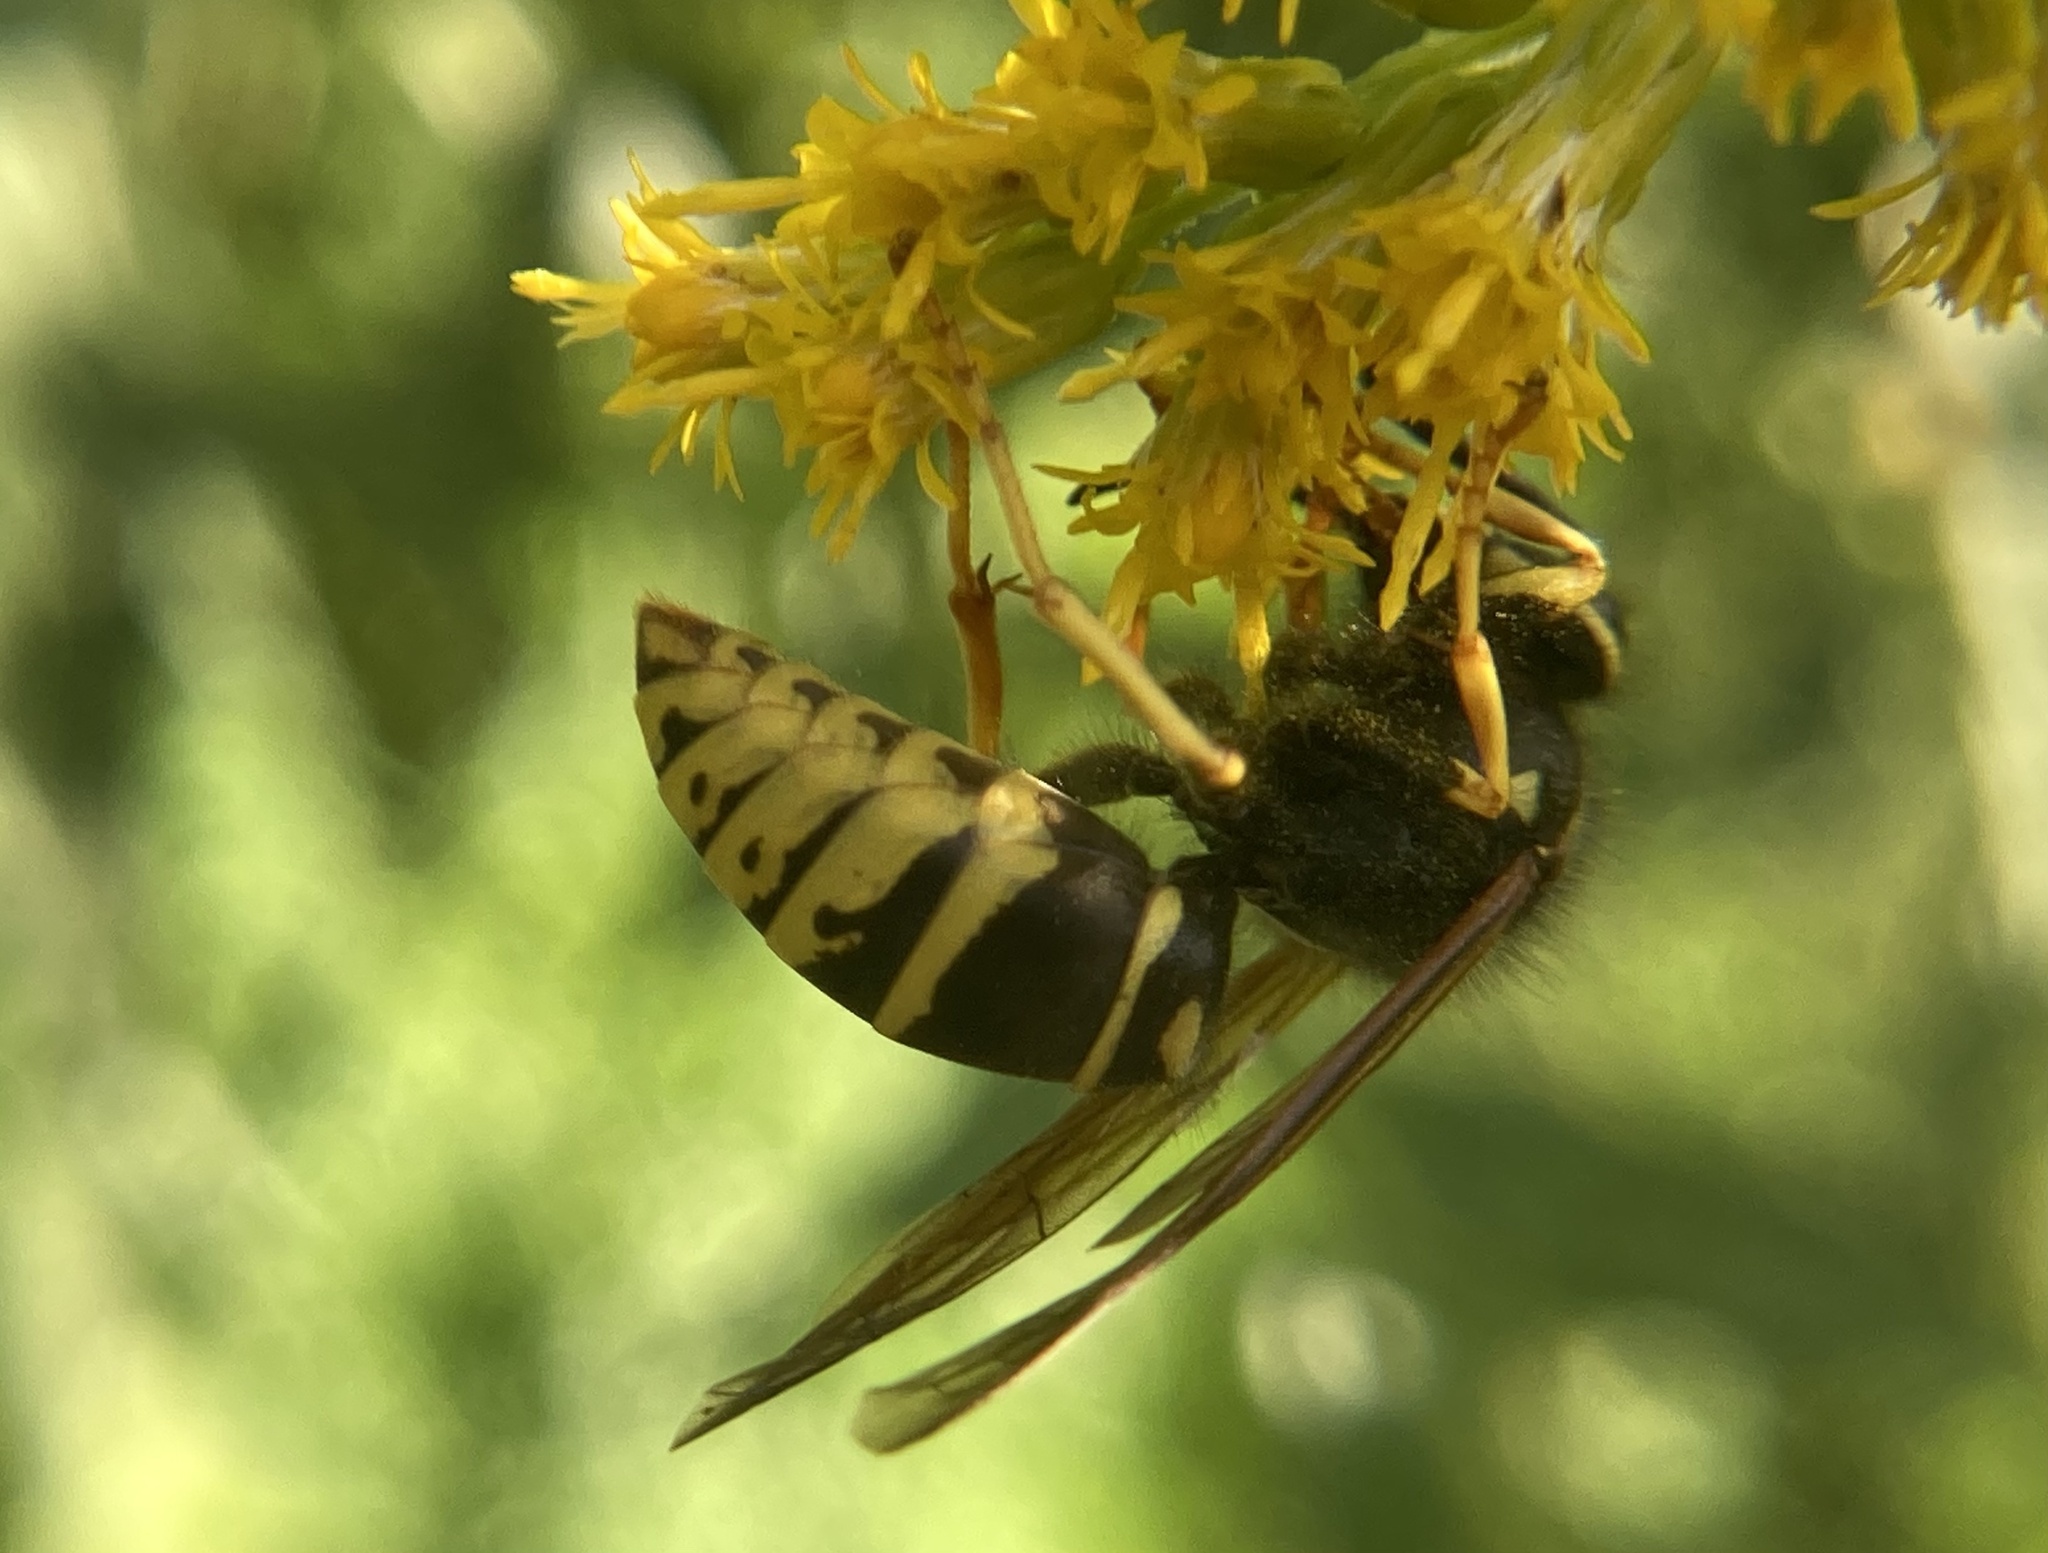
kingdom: Animalia
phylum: Arthropoda
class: Insecta
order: Hymenoptera
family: Vespidae
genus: Vespula
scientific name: Vespula vidua
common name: Widow yellowjacket
